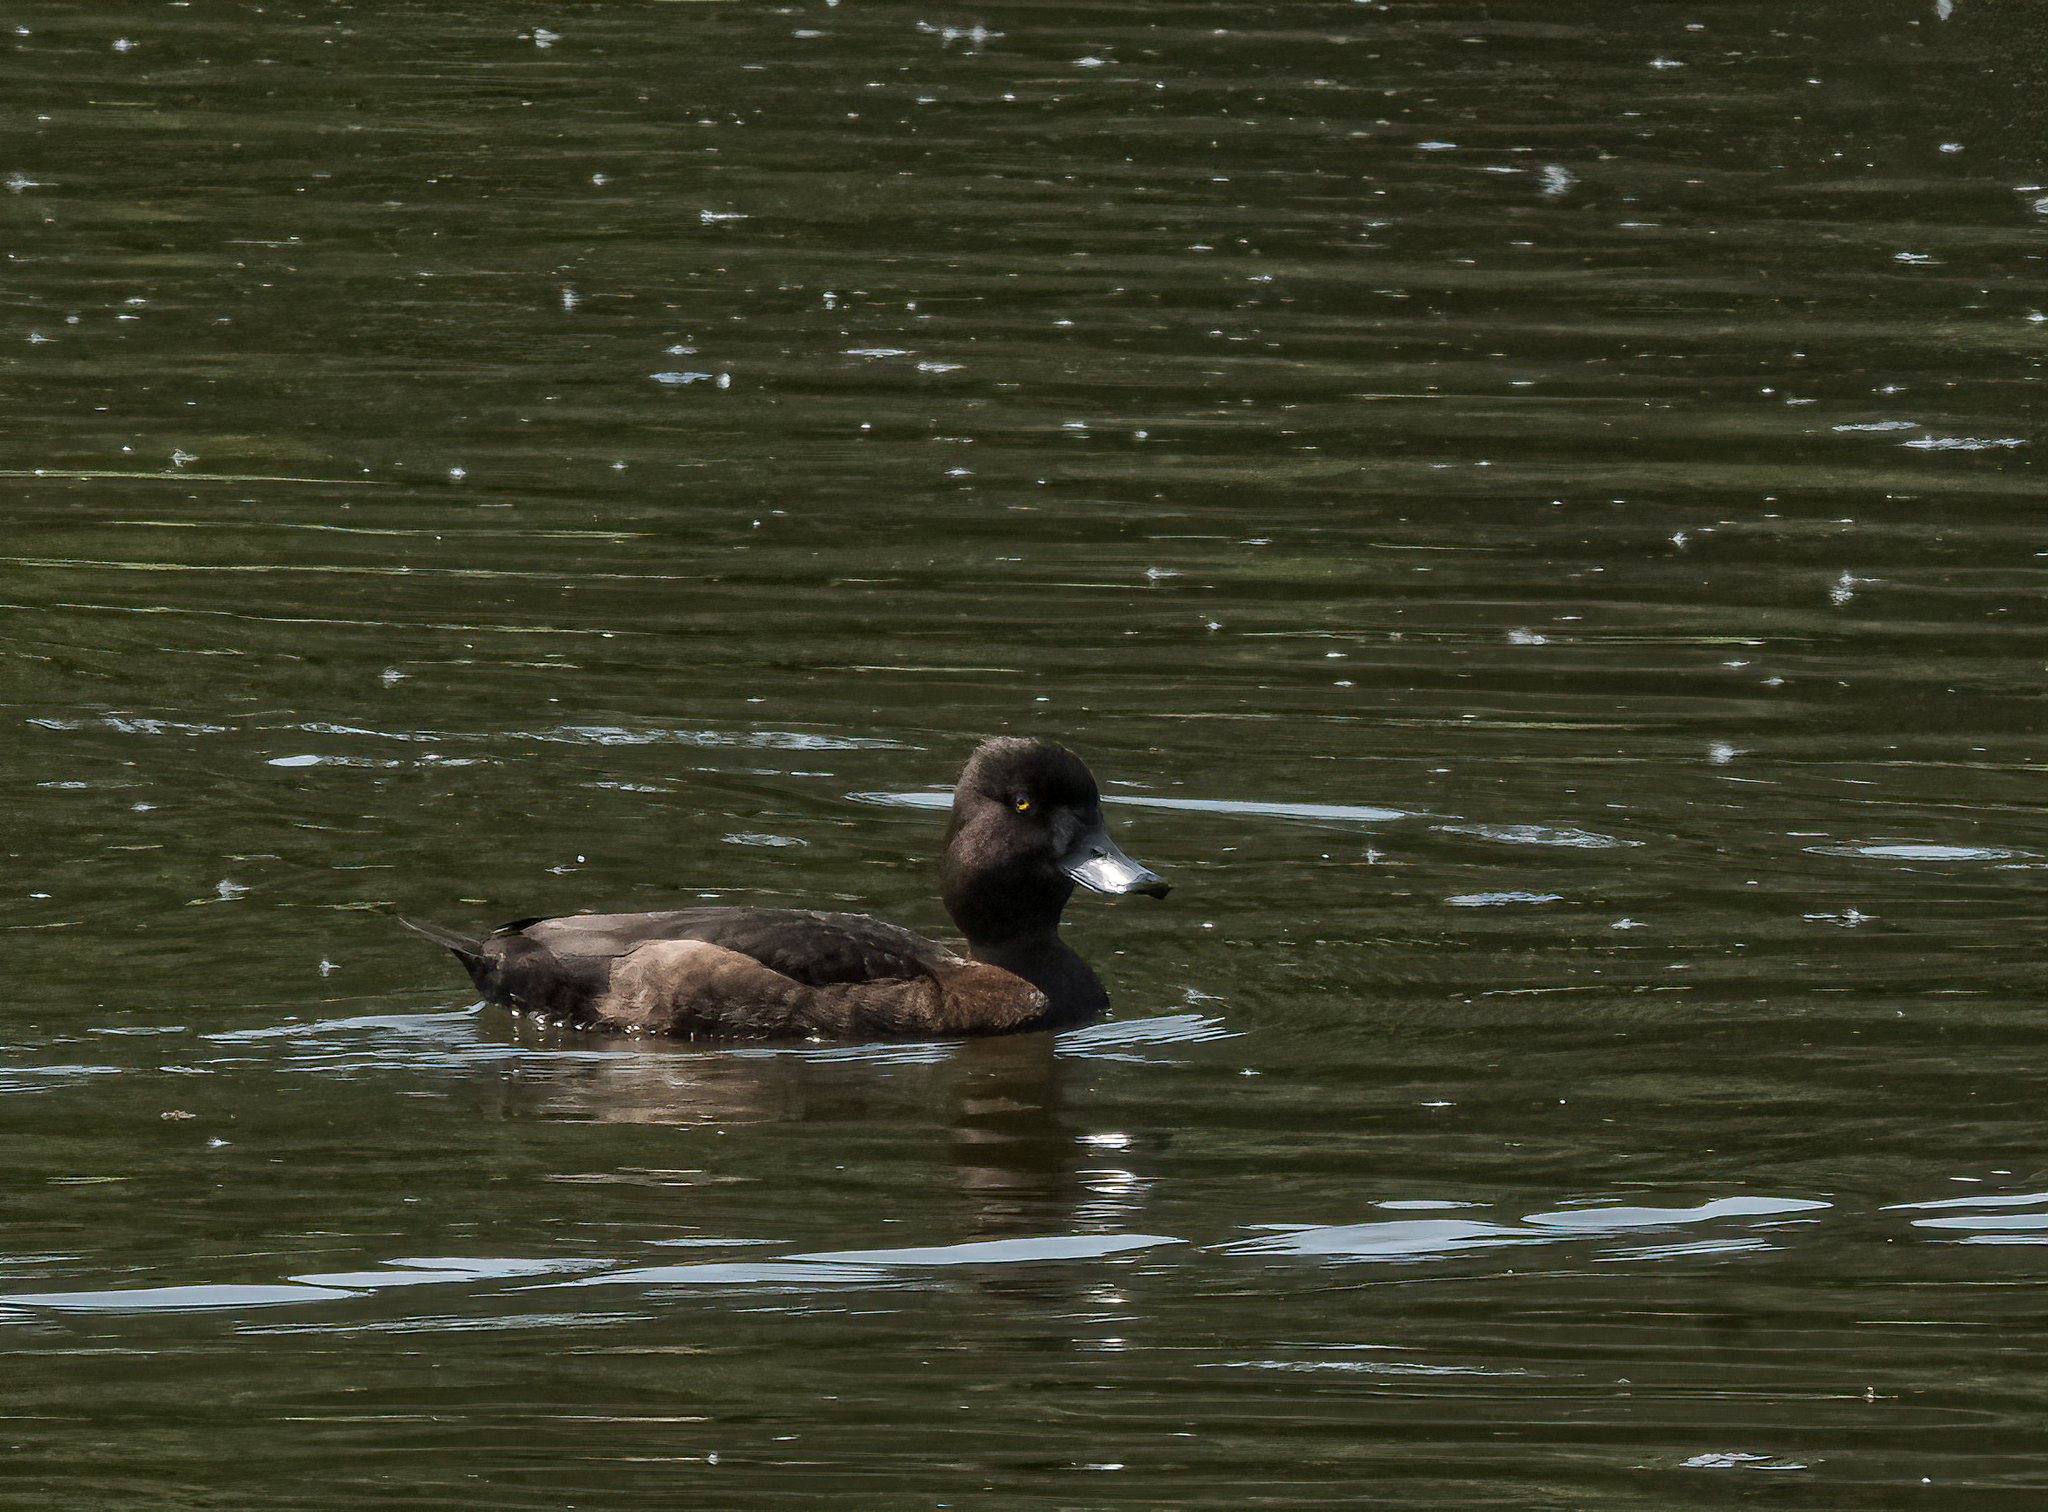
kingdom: Animalia
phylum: Chordata
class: Aves
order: Anseriformes
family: Anatidae
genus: Aythya
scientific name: Aythya fuligula
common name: Tufted duck
